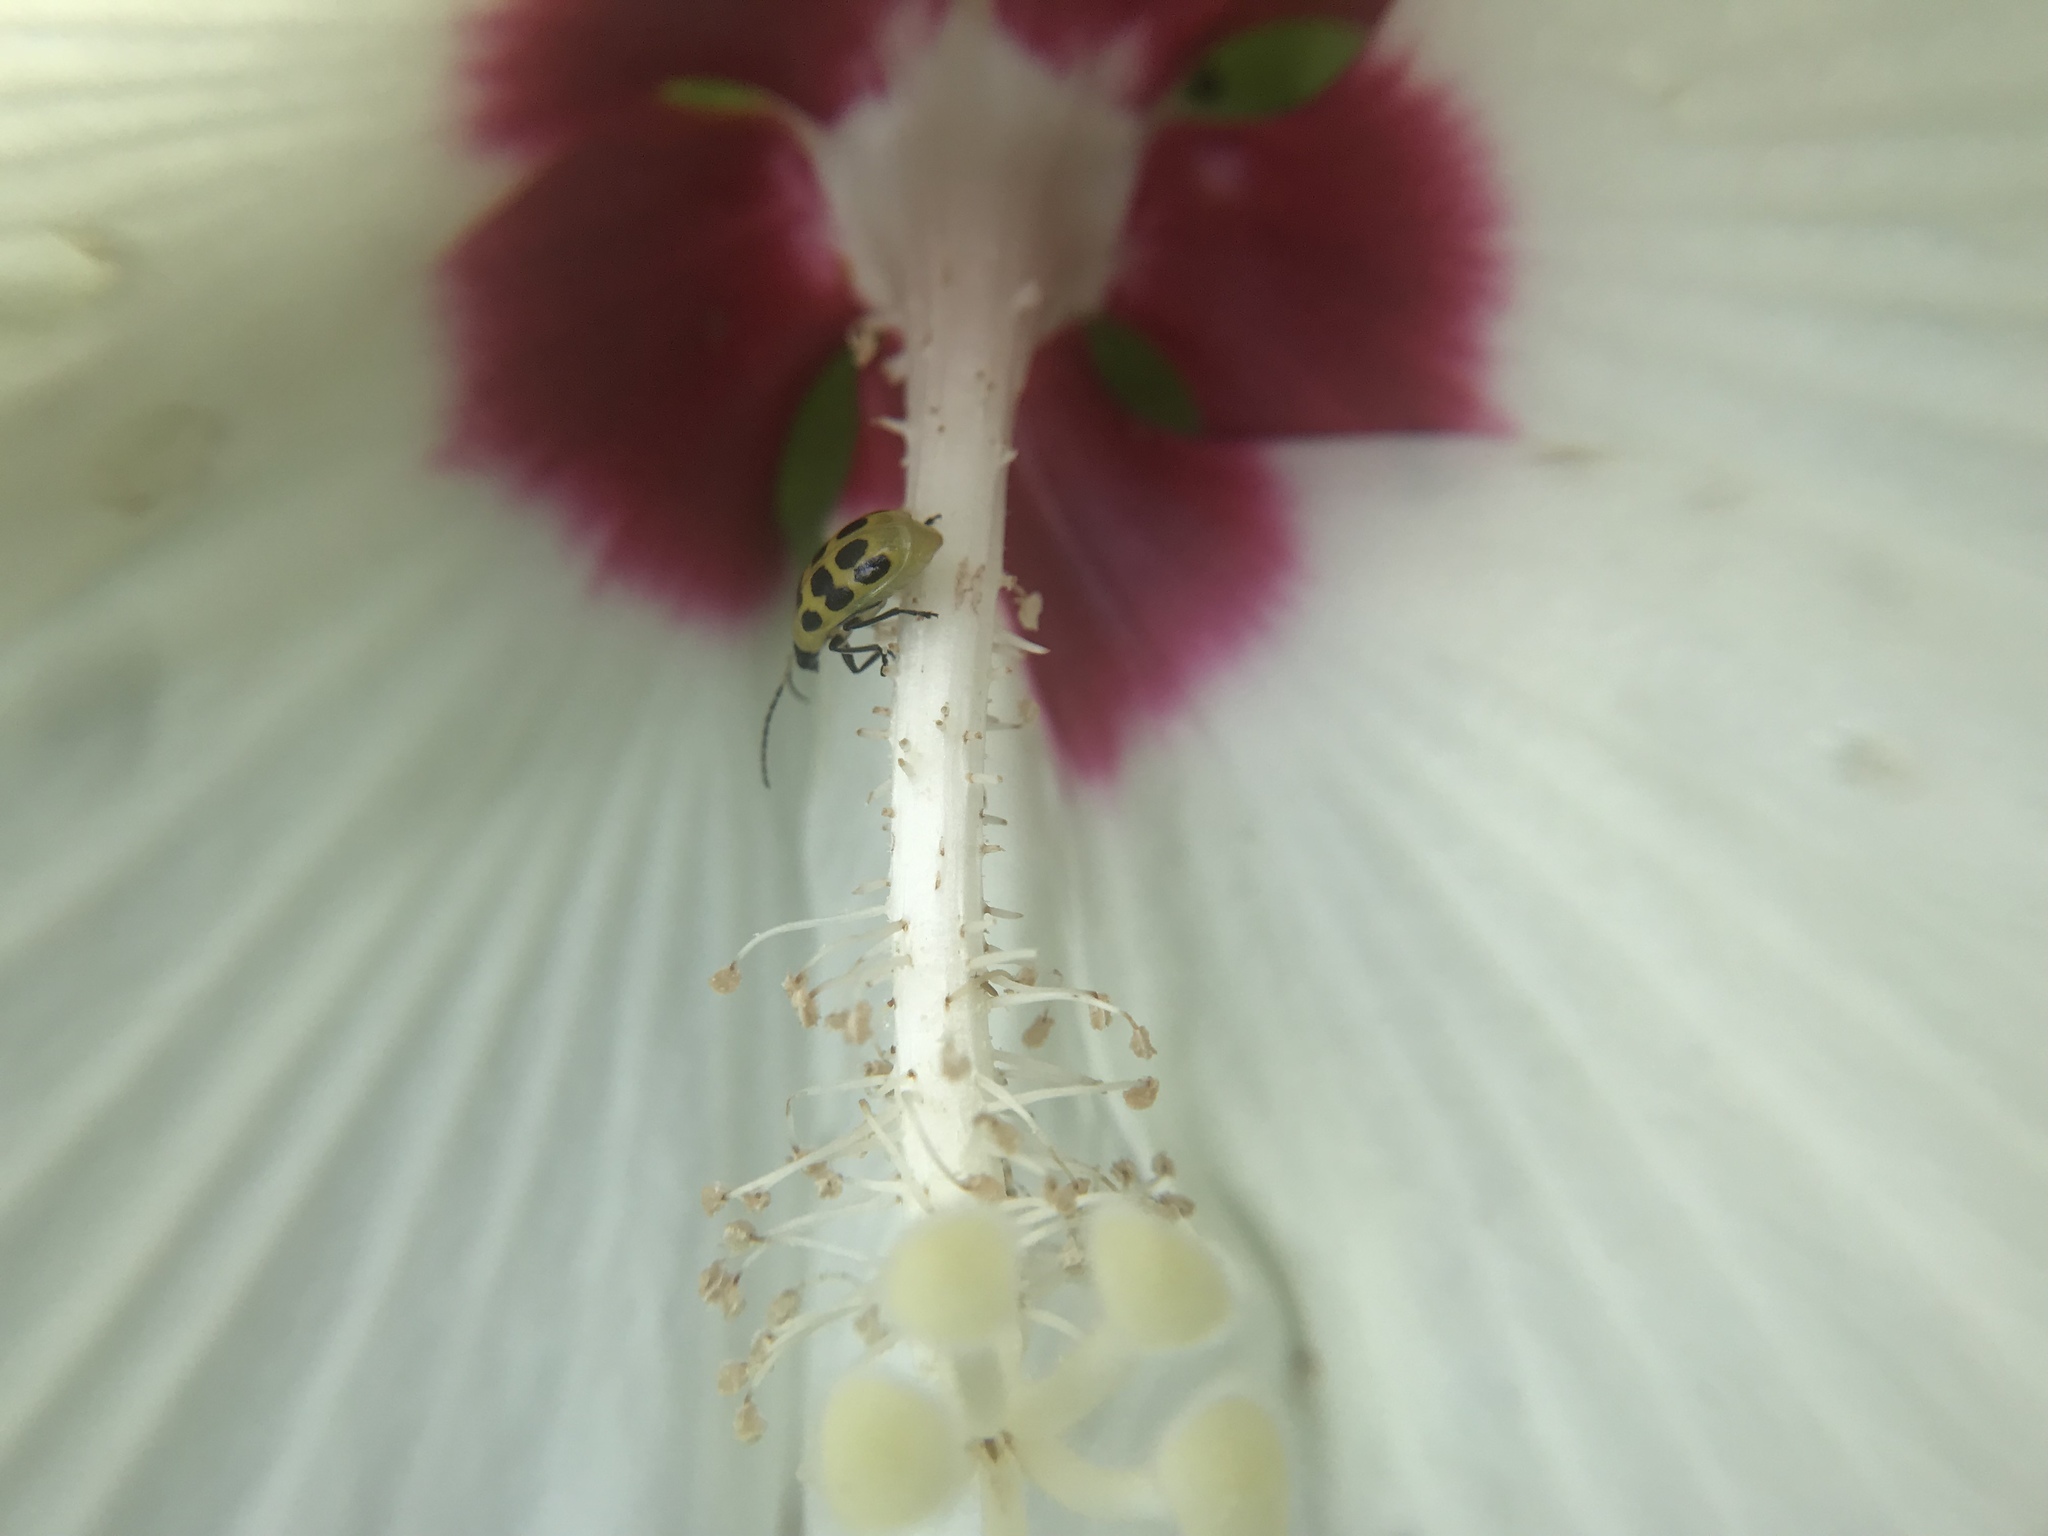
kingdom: Animalia
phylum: Arthropoda
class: Insecta
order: Coleoptera
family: Chrysomelidae
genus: Diabrotica
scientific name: Diabrotica undecimpunctata
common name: Spotted cucumber beetle
